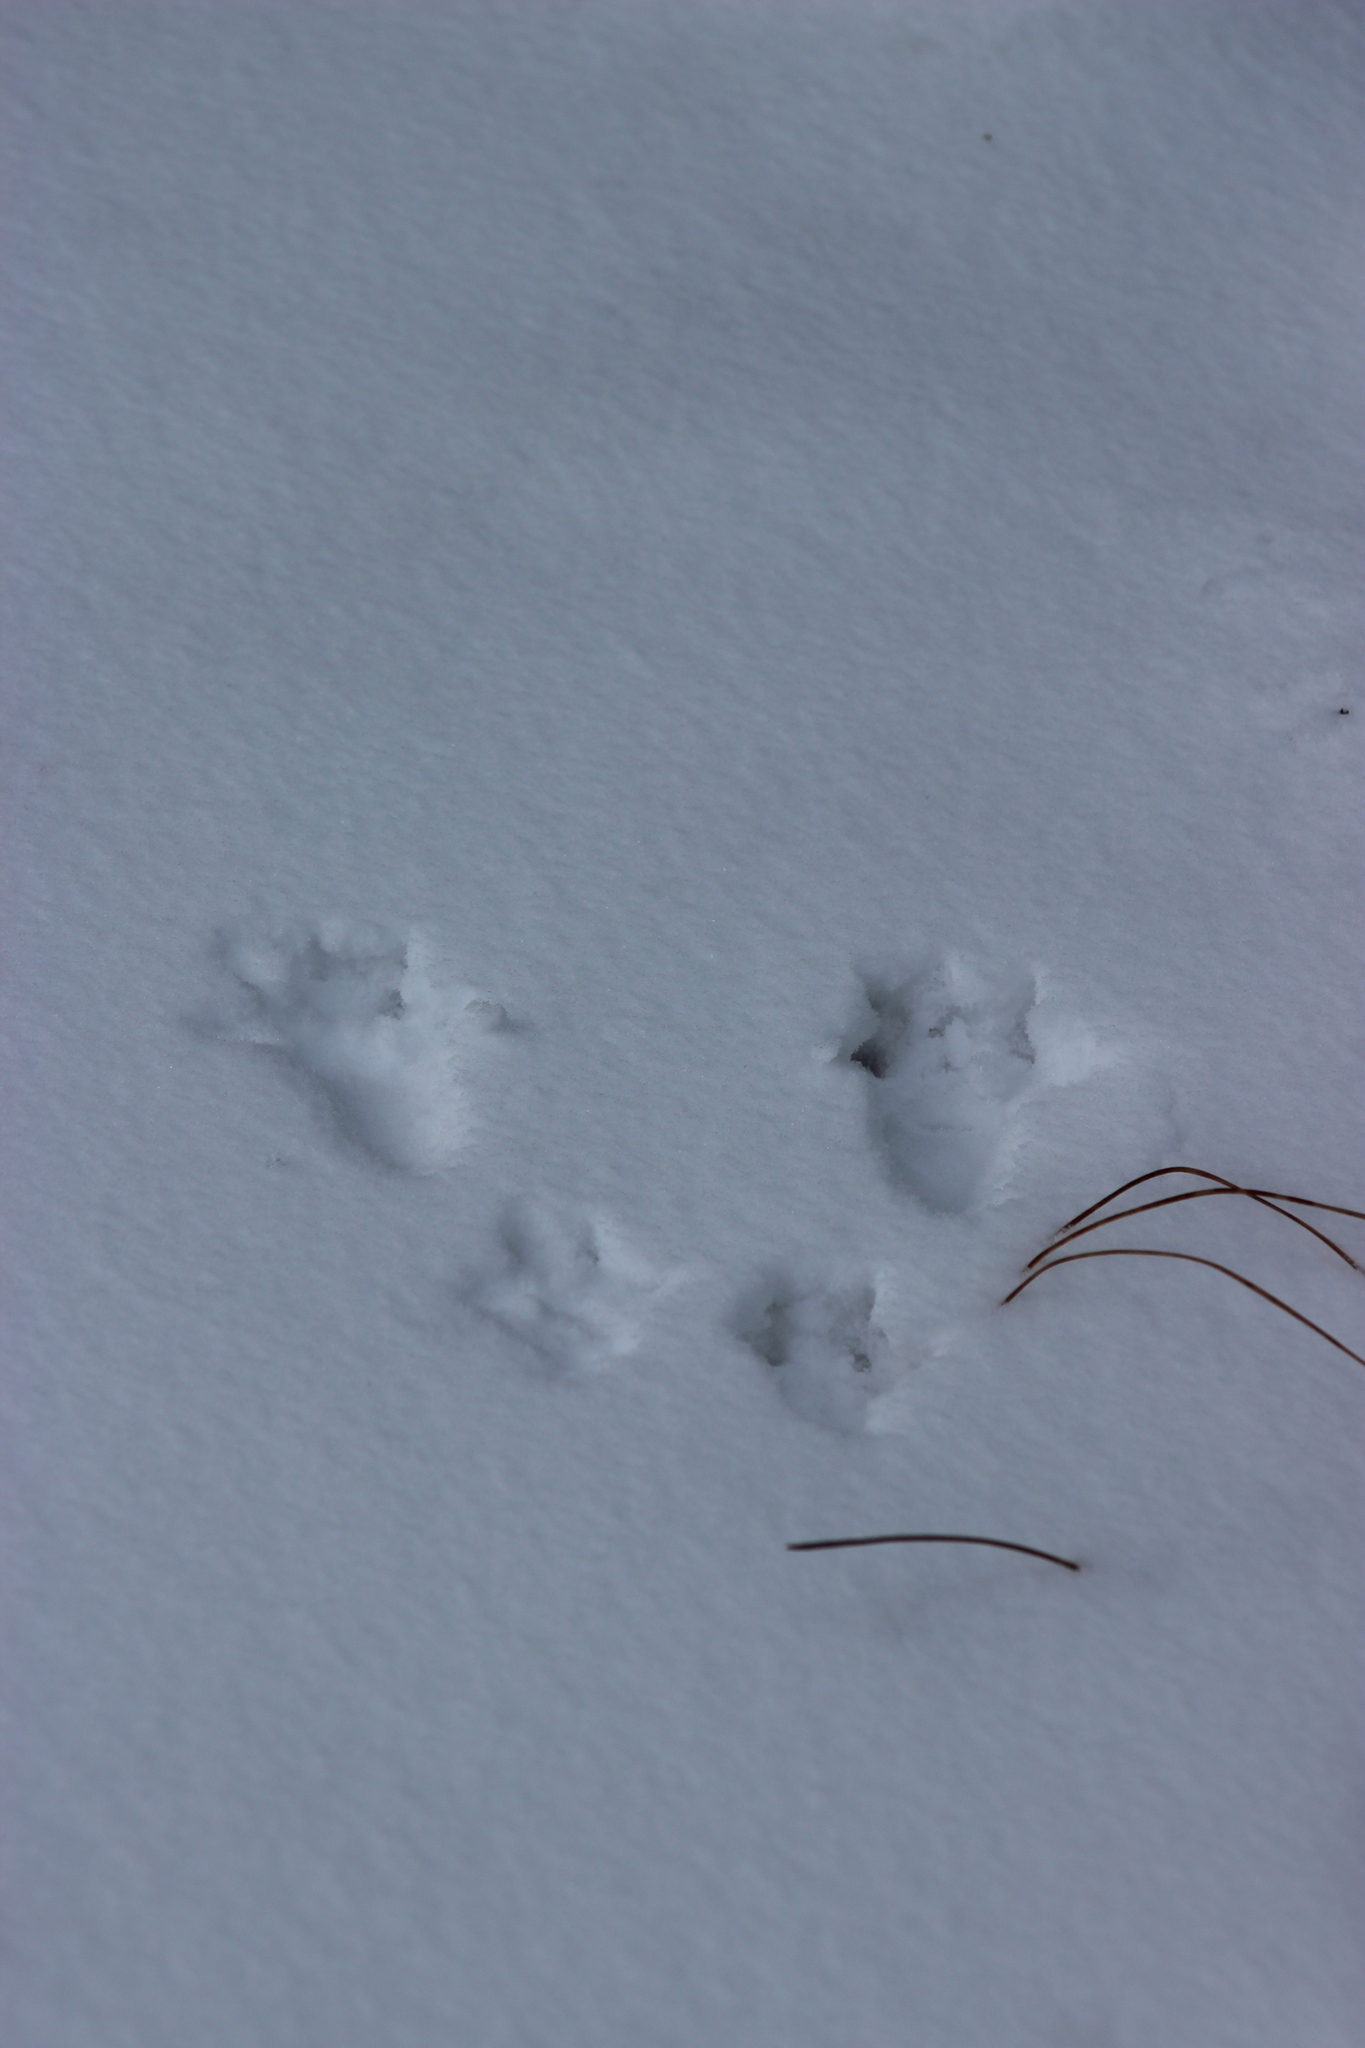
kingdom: Animalia
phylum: Chordata
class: Mammalia
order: Rodentia
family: Sciuridae
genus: Sciurus
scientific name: Sciurus vulgaris
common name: Eurasian red squirrel
